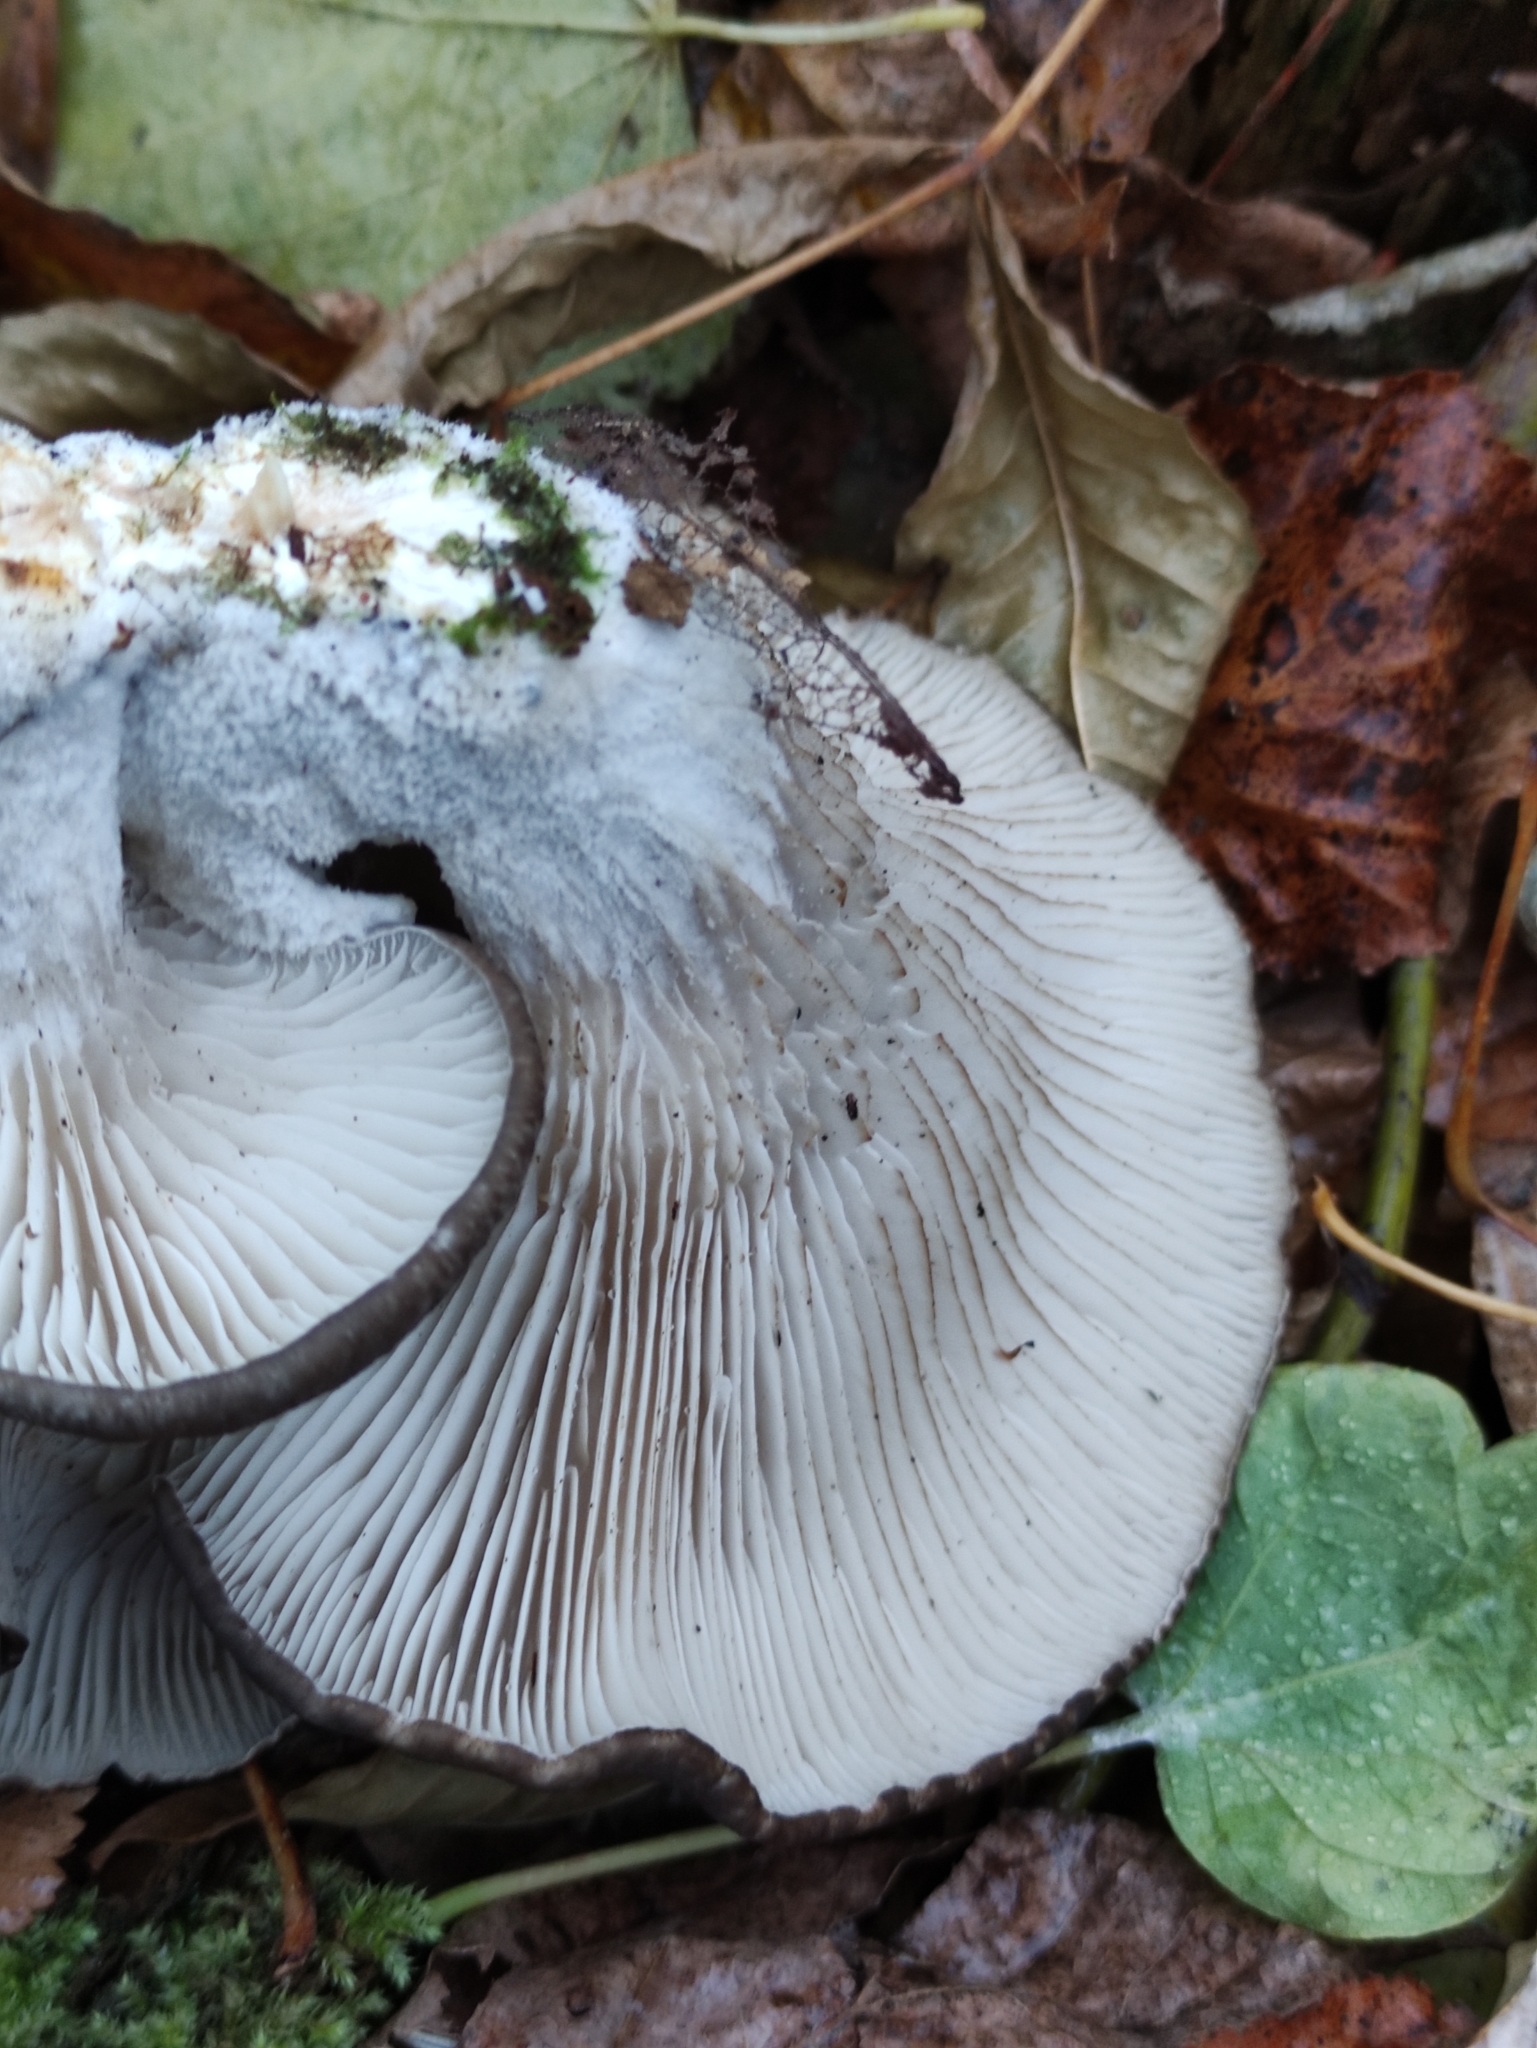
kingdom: Fungi
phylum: Basidiomycota
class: Agaricomycetes
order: Agaricales
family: Pleurotaceae
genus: Pleurotus
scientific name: Pleurotus ostreatus
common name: Oyster mushroom
